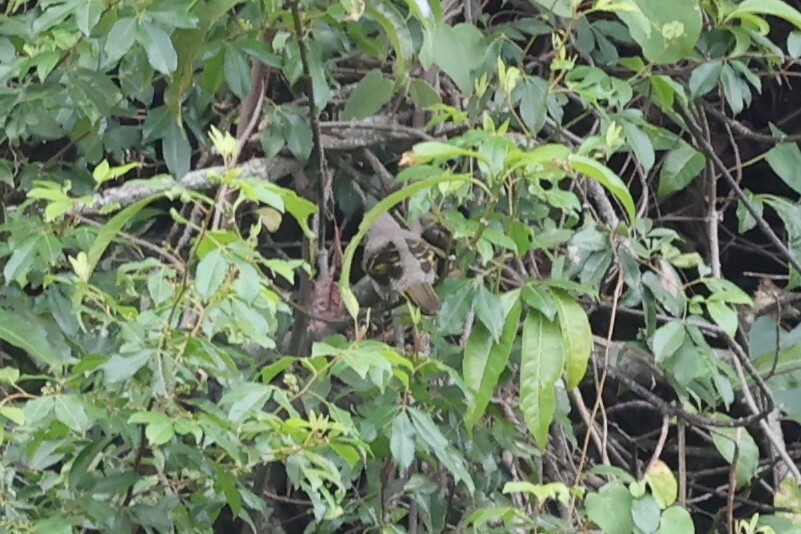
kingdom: Animalia
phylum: Chordata
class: Aves
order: Passeriformes
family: Campephagidae
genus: Campephaga
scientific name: Campephaga phoenicea
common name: Red-shouldered cuckooshrike
